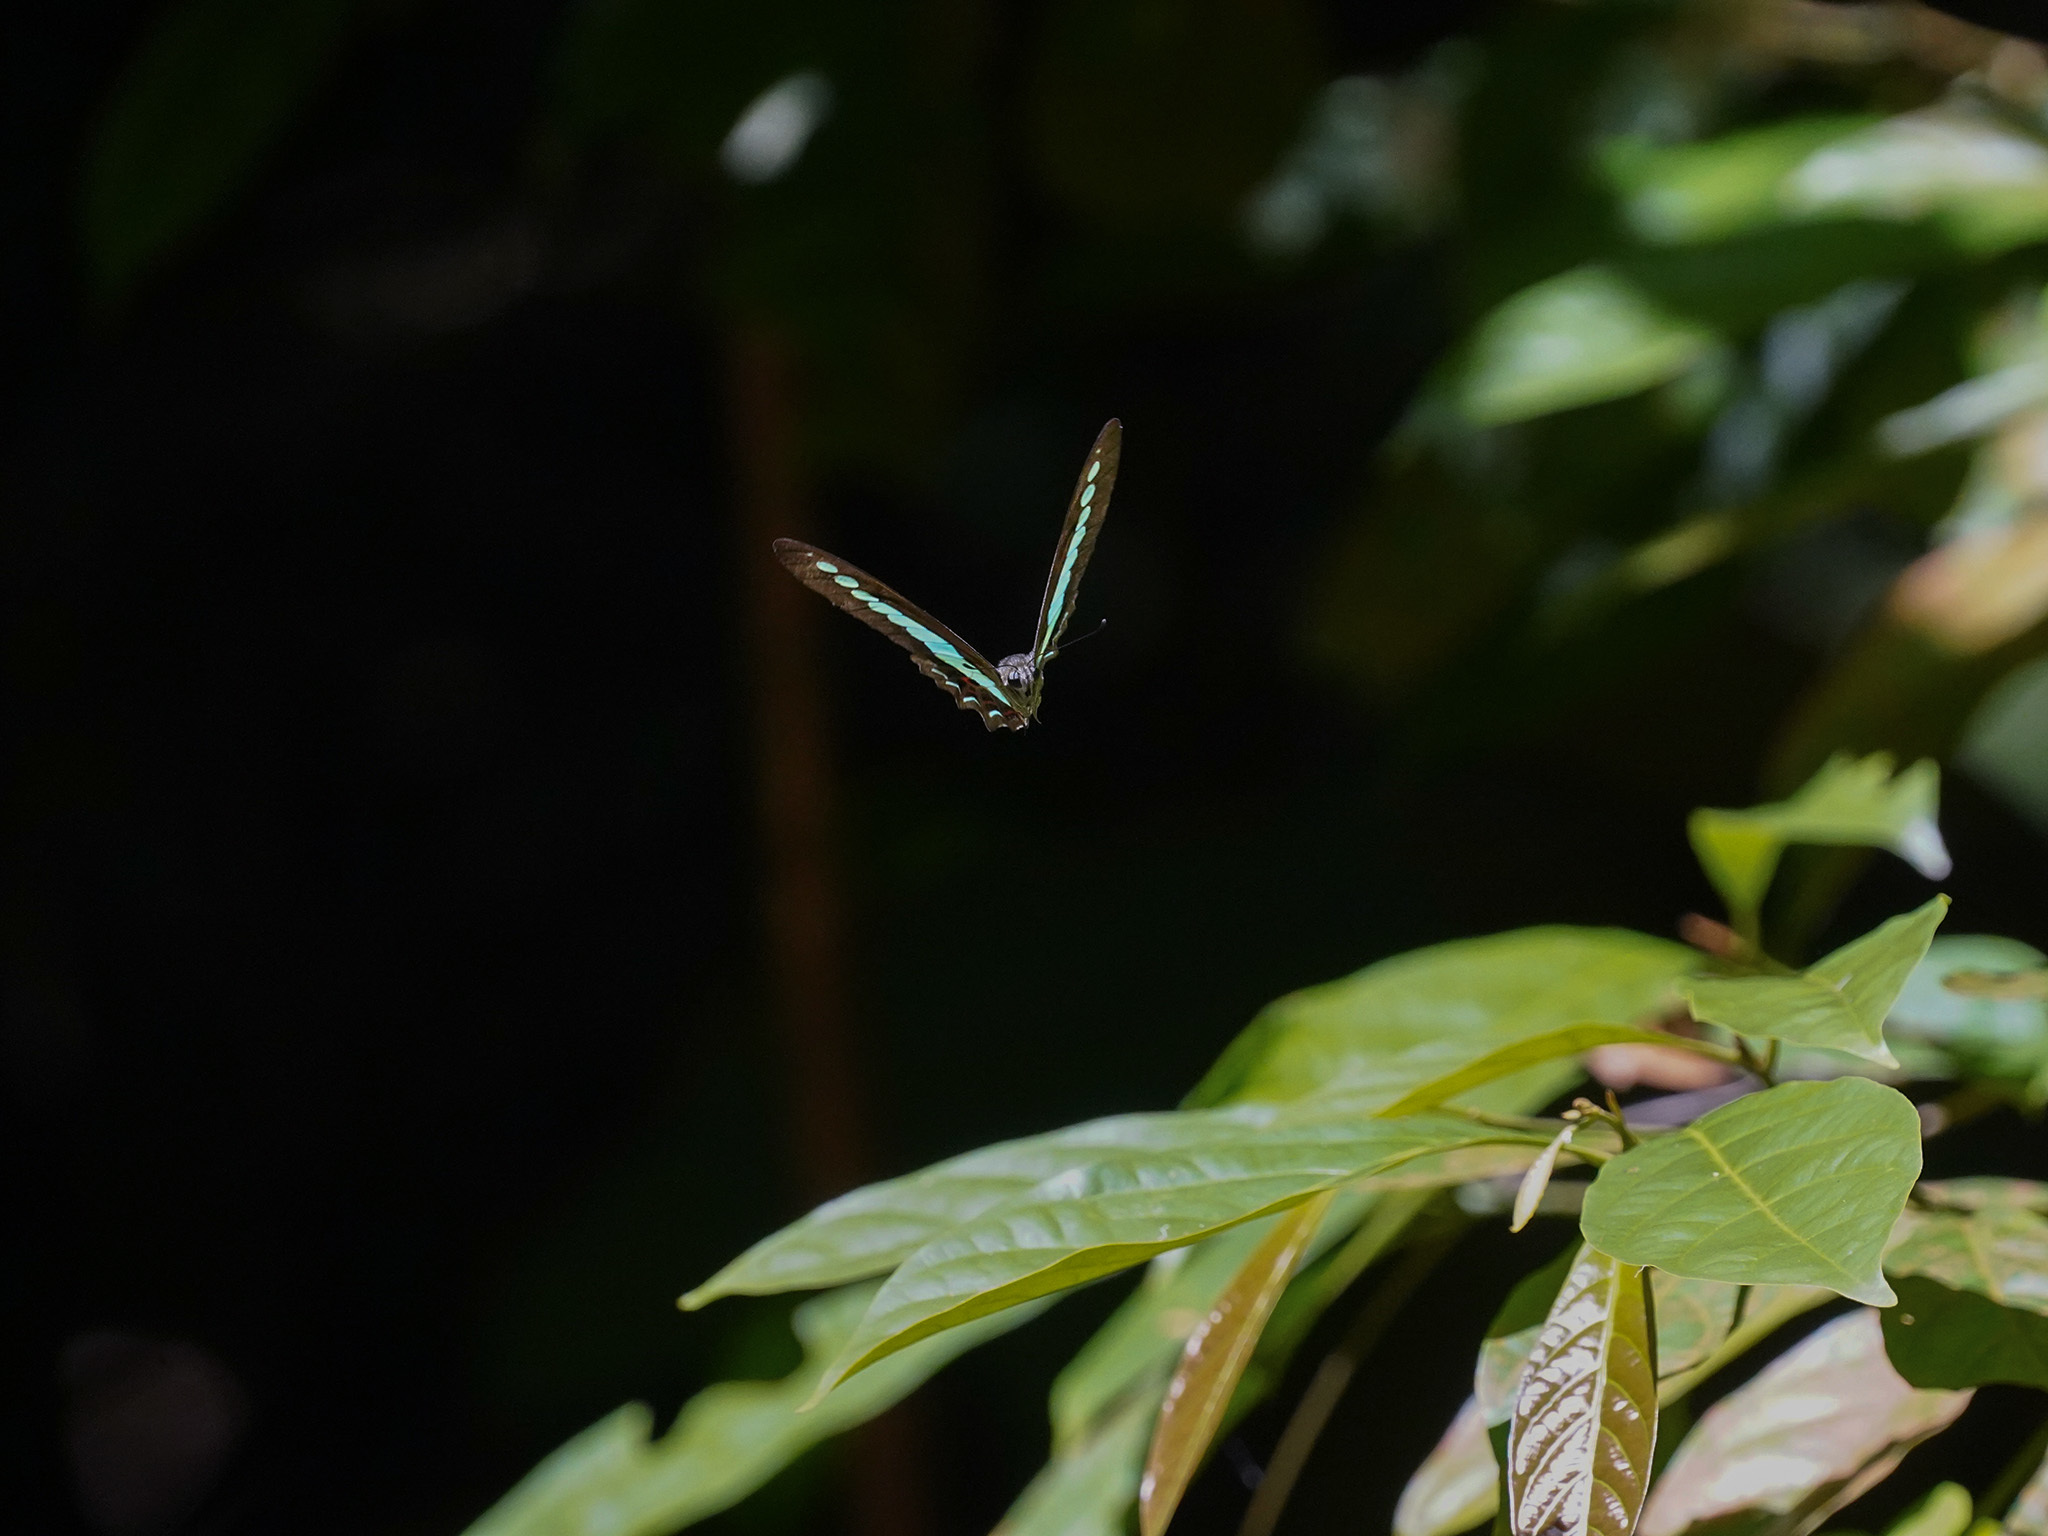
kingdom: Fungi
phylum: Ascomycota
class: Sordariomycetes
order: Microascales
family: Microascaceae
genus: Graphium
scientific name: Graphium sarpedon
